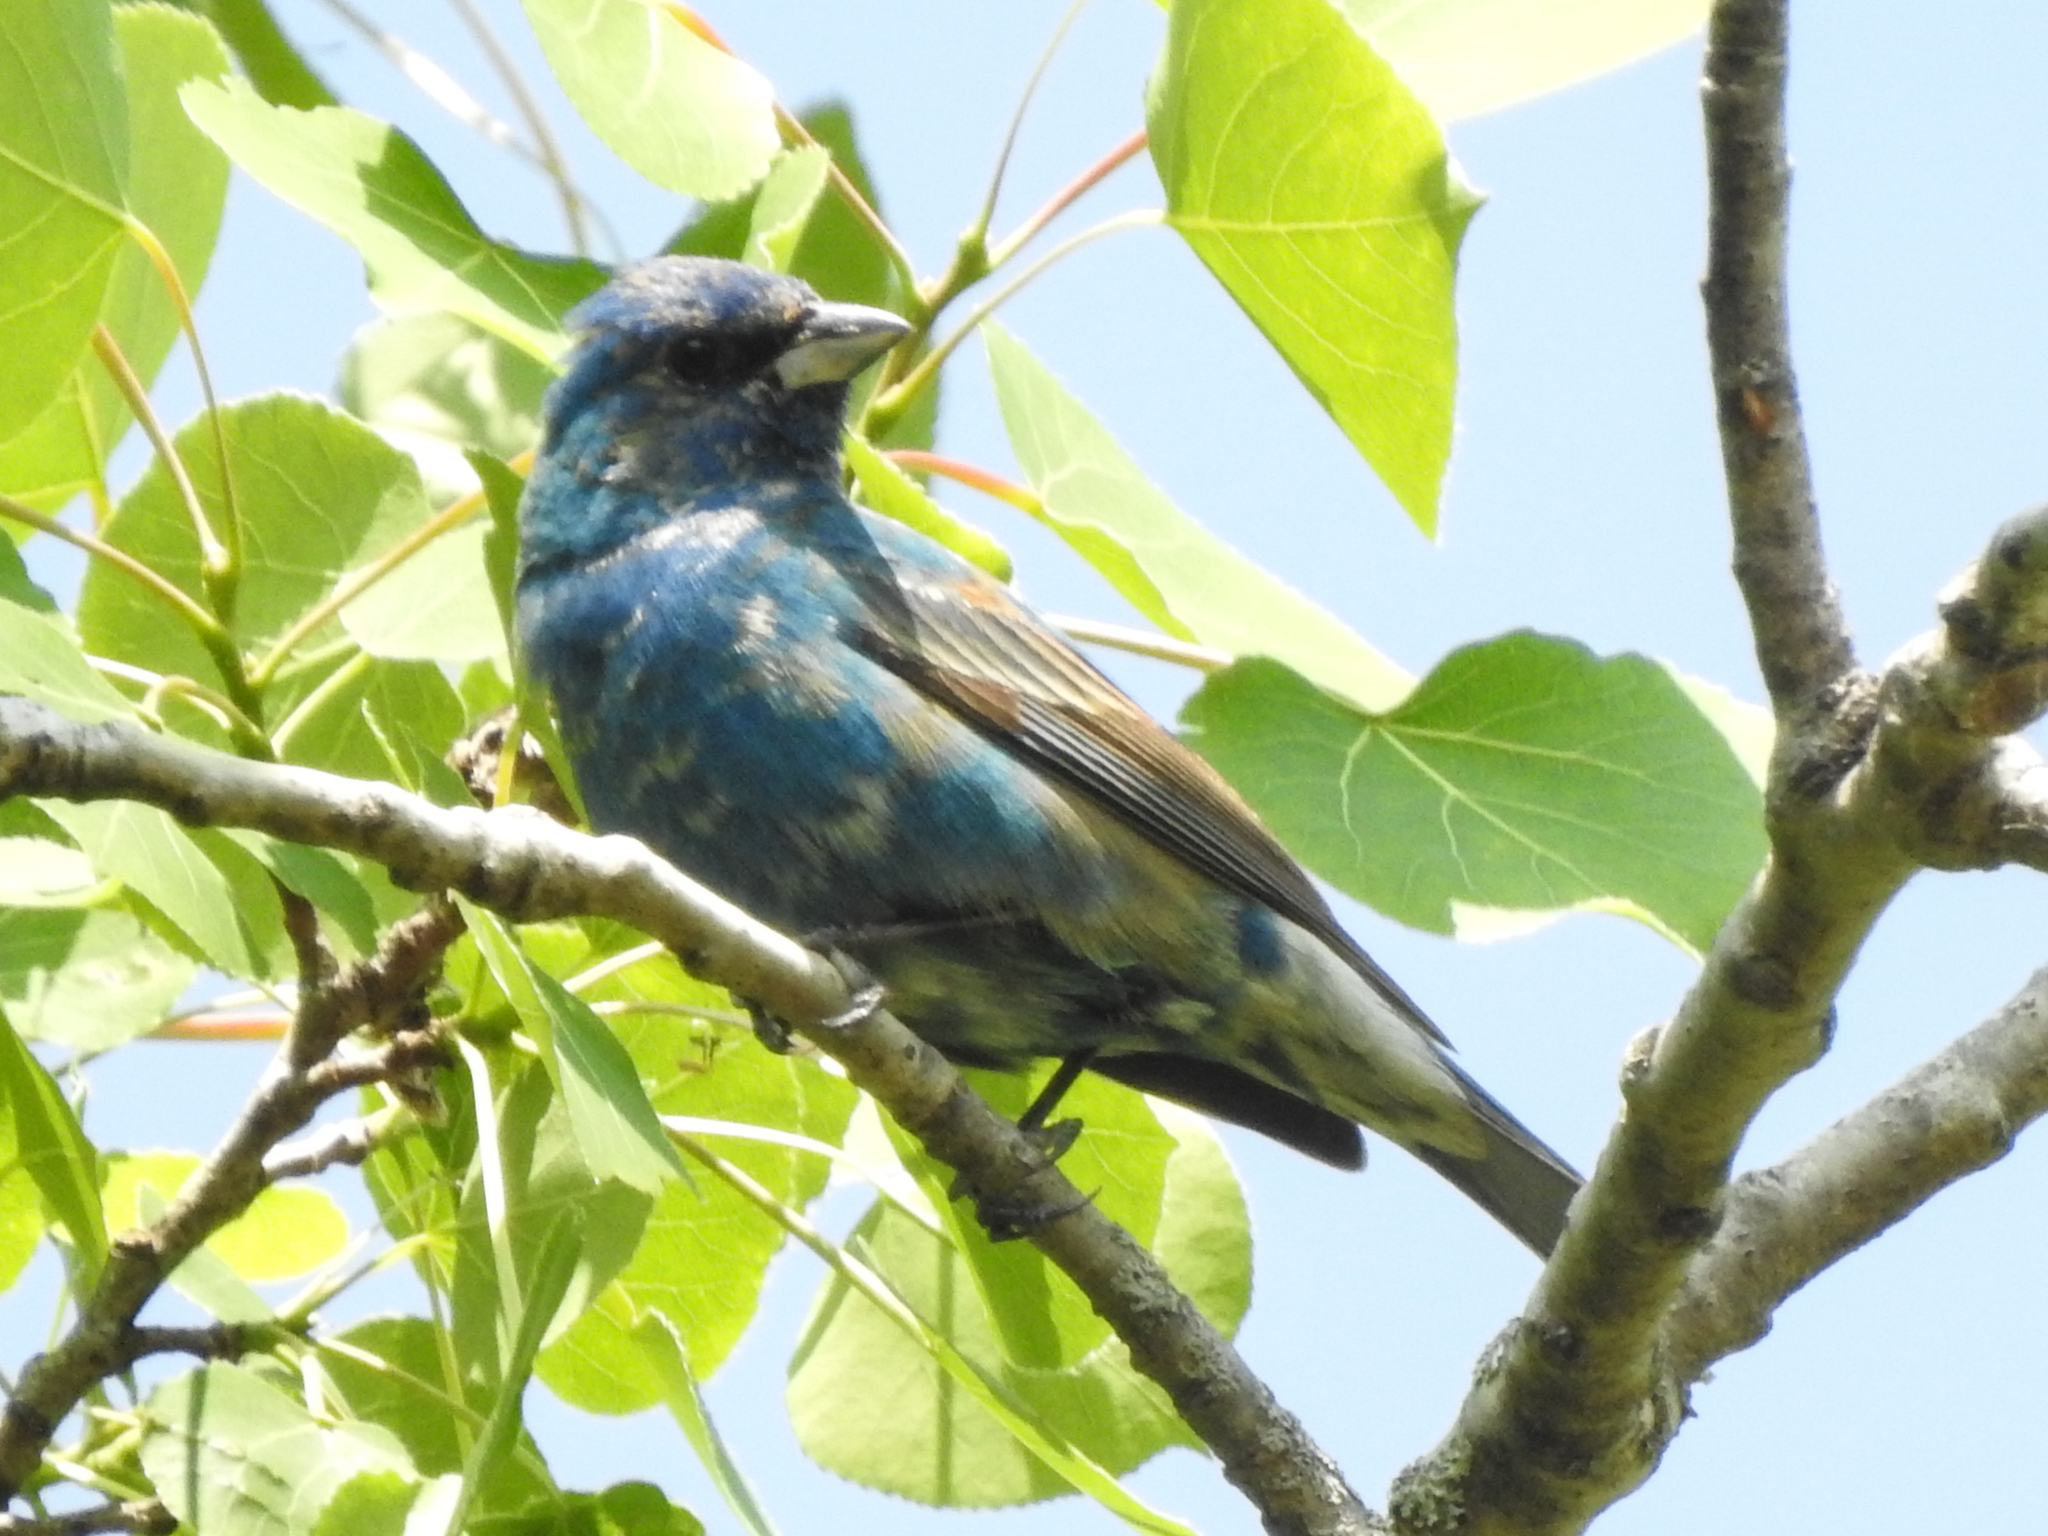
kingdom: Animalia
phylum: Chordata
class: Aves
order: Passeriformes
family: Cardinalidae
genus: Passerina
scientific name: Passerina cyanea
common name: Indigo bunting
